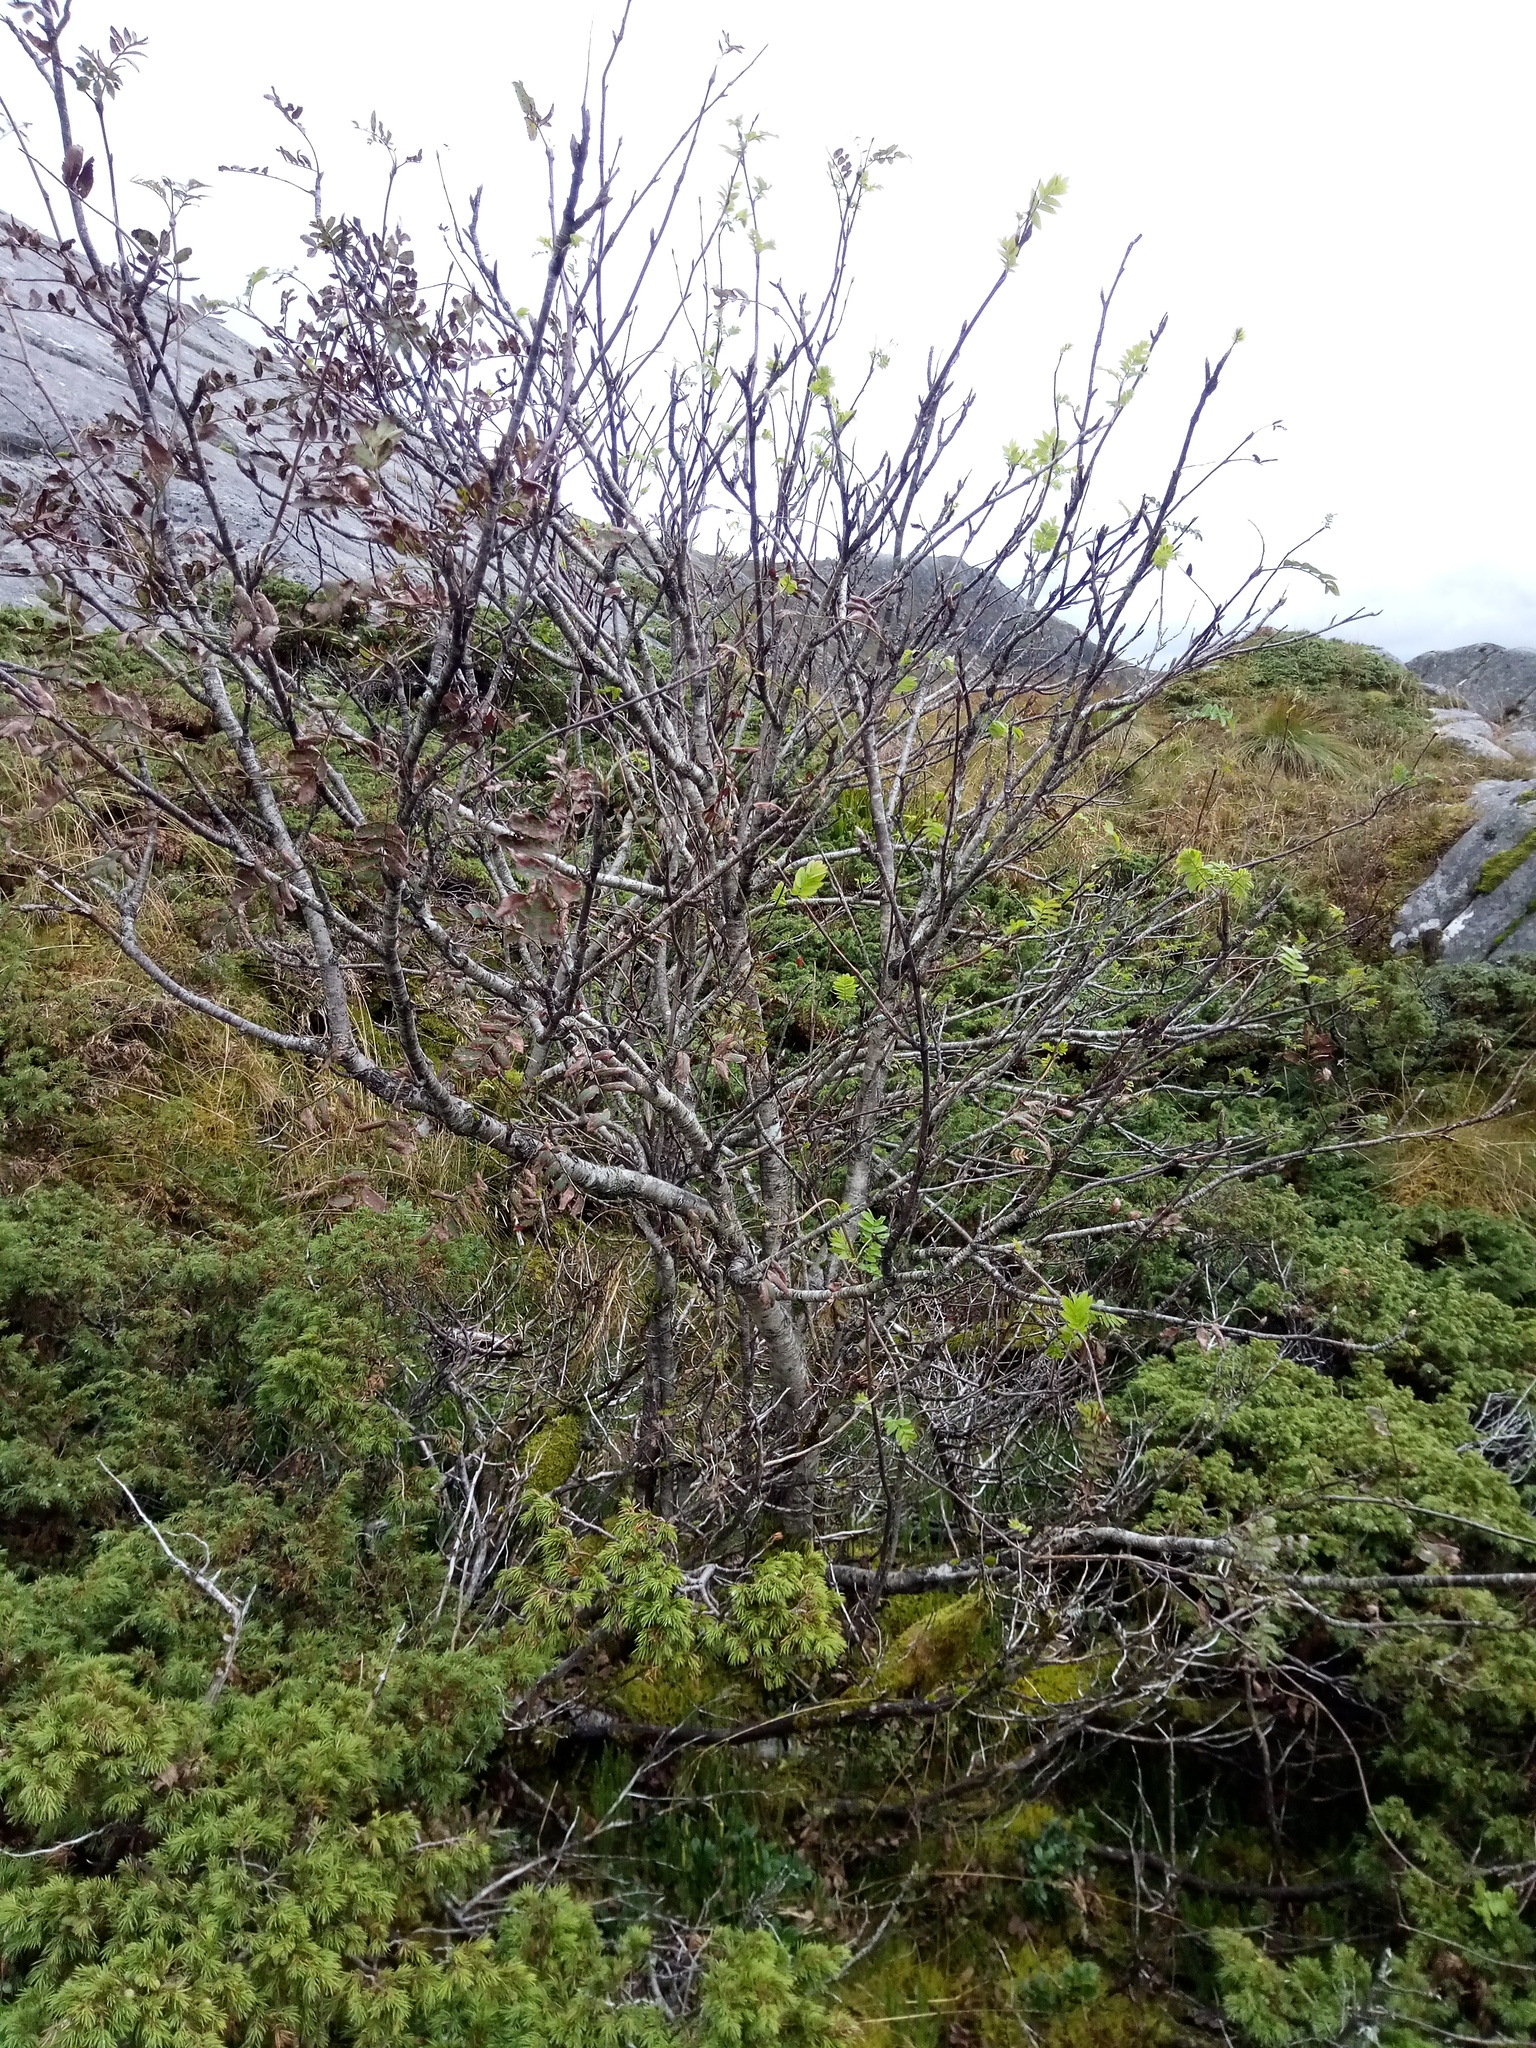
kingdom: Plantae
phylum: Tracheophyta
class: Magnoliopsida
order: Rosales
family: Rosaceae
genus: Sorbus
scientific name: Sorbus aucuparia
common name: Rowan
